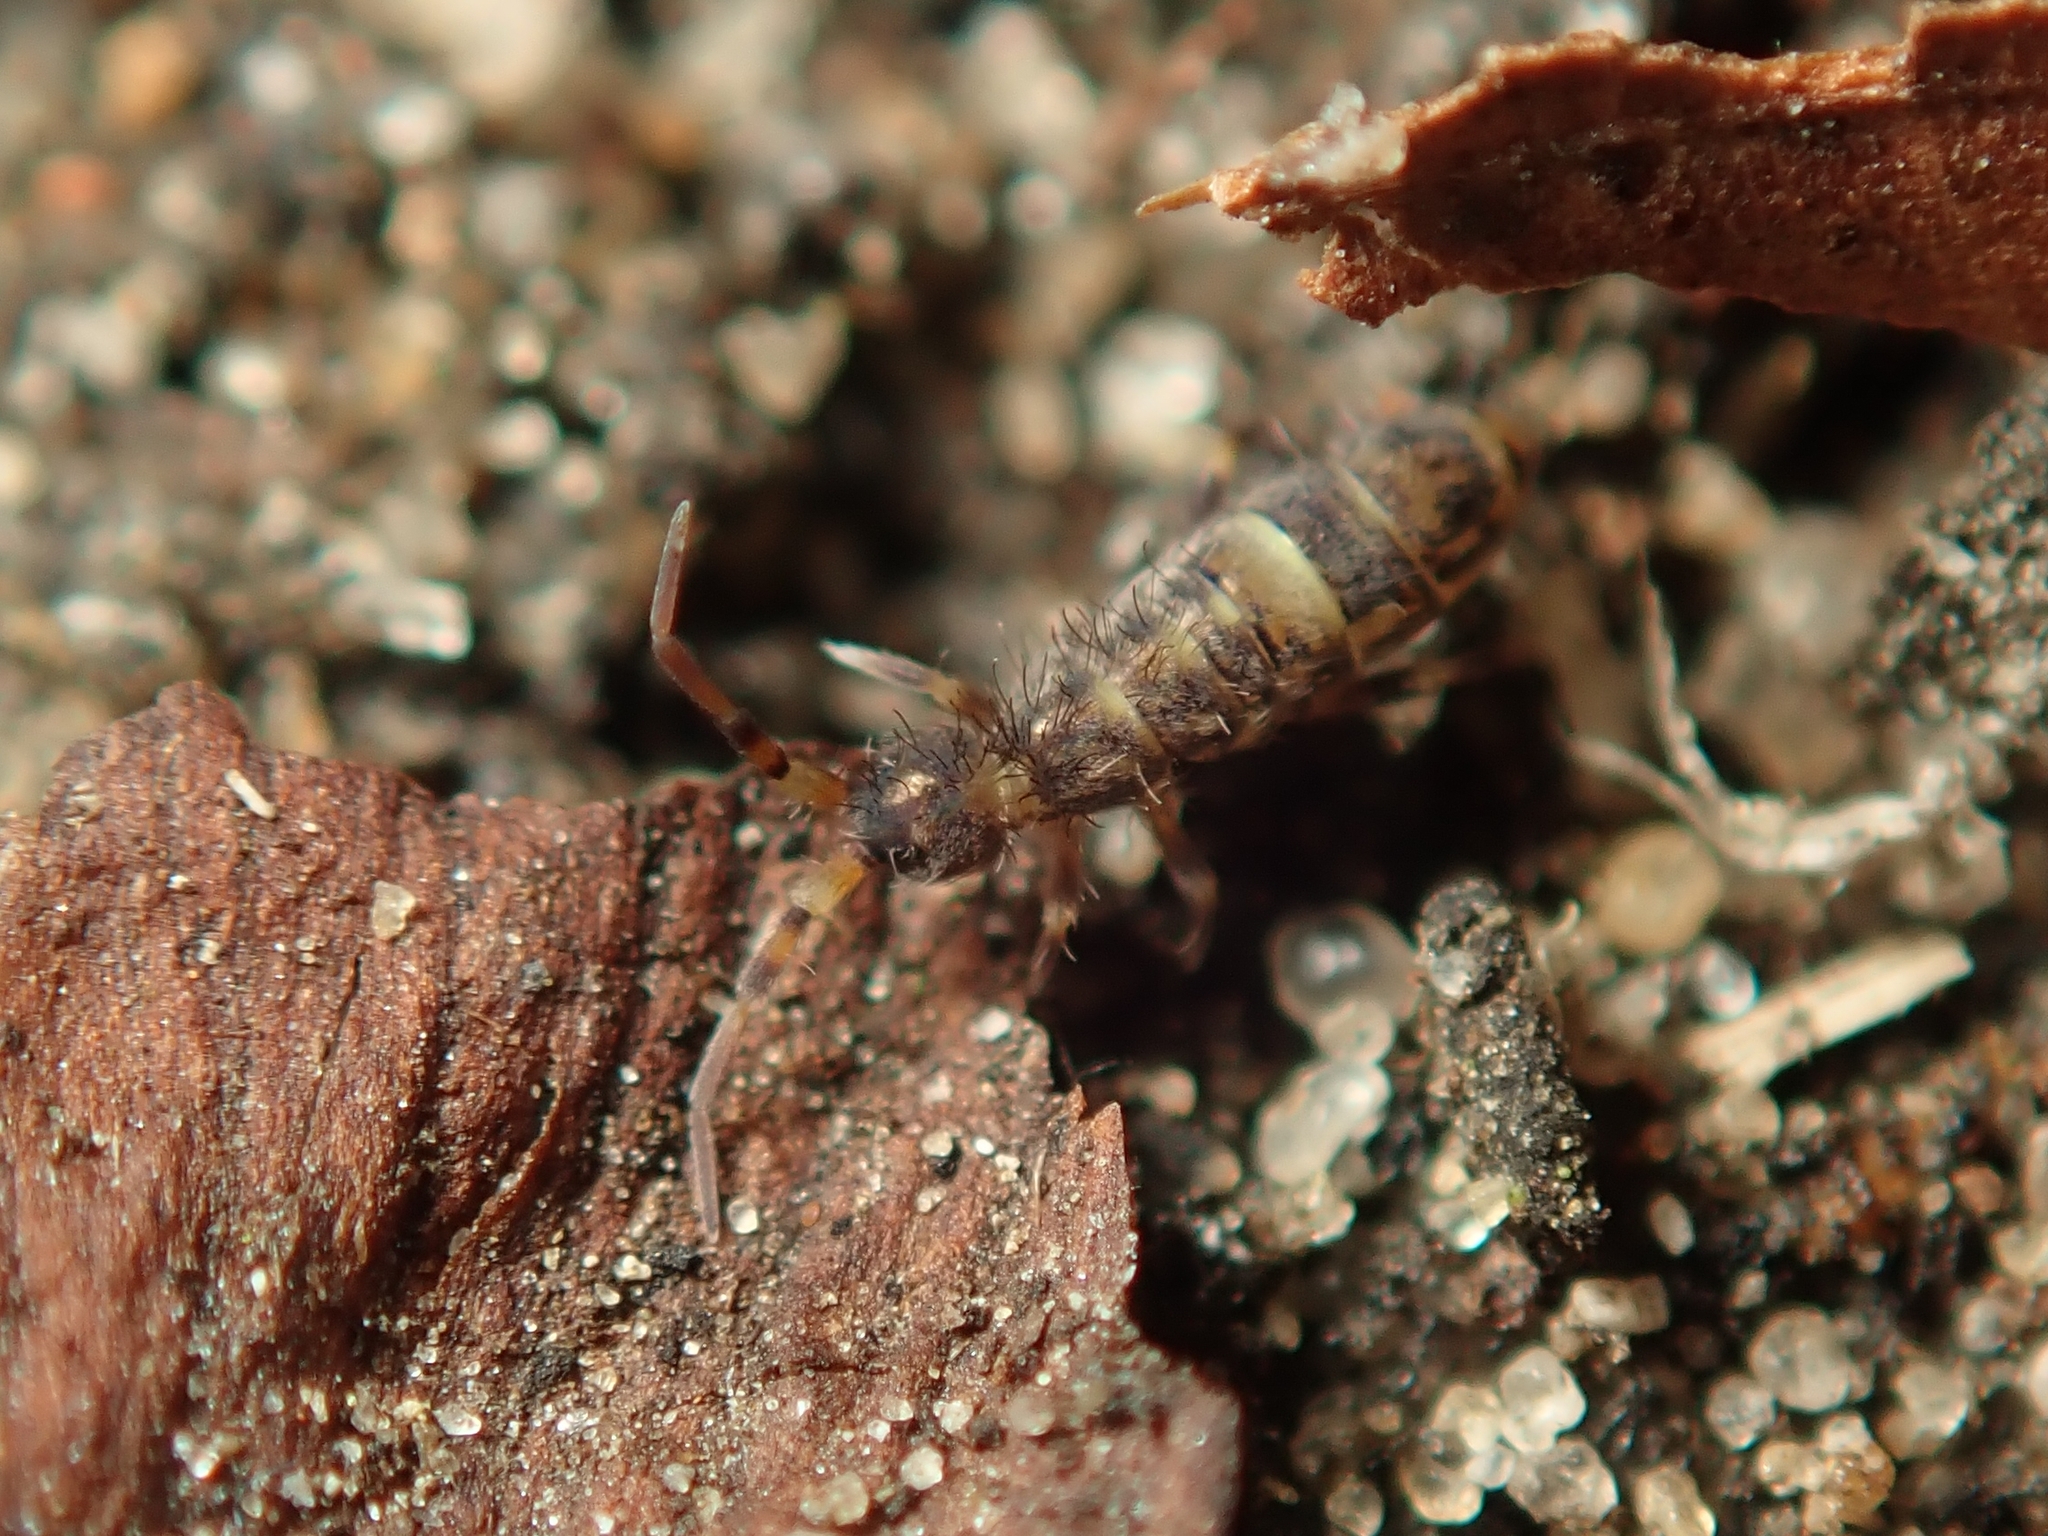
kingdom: Animalia
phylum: Arthropoda
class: Collembola
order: Entomobryomorpha
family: Orchesellidae
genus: Orchesella
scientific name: Orchesella cincta
